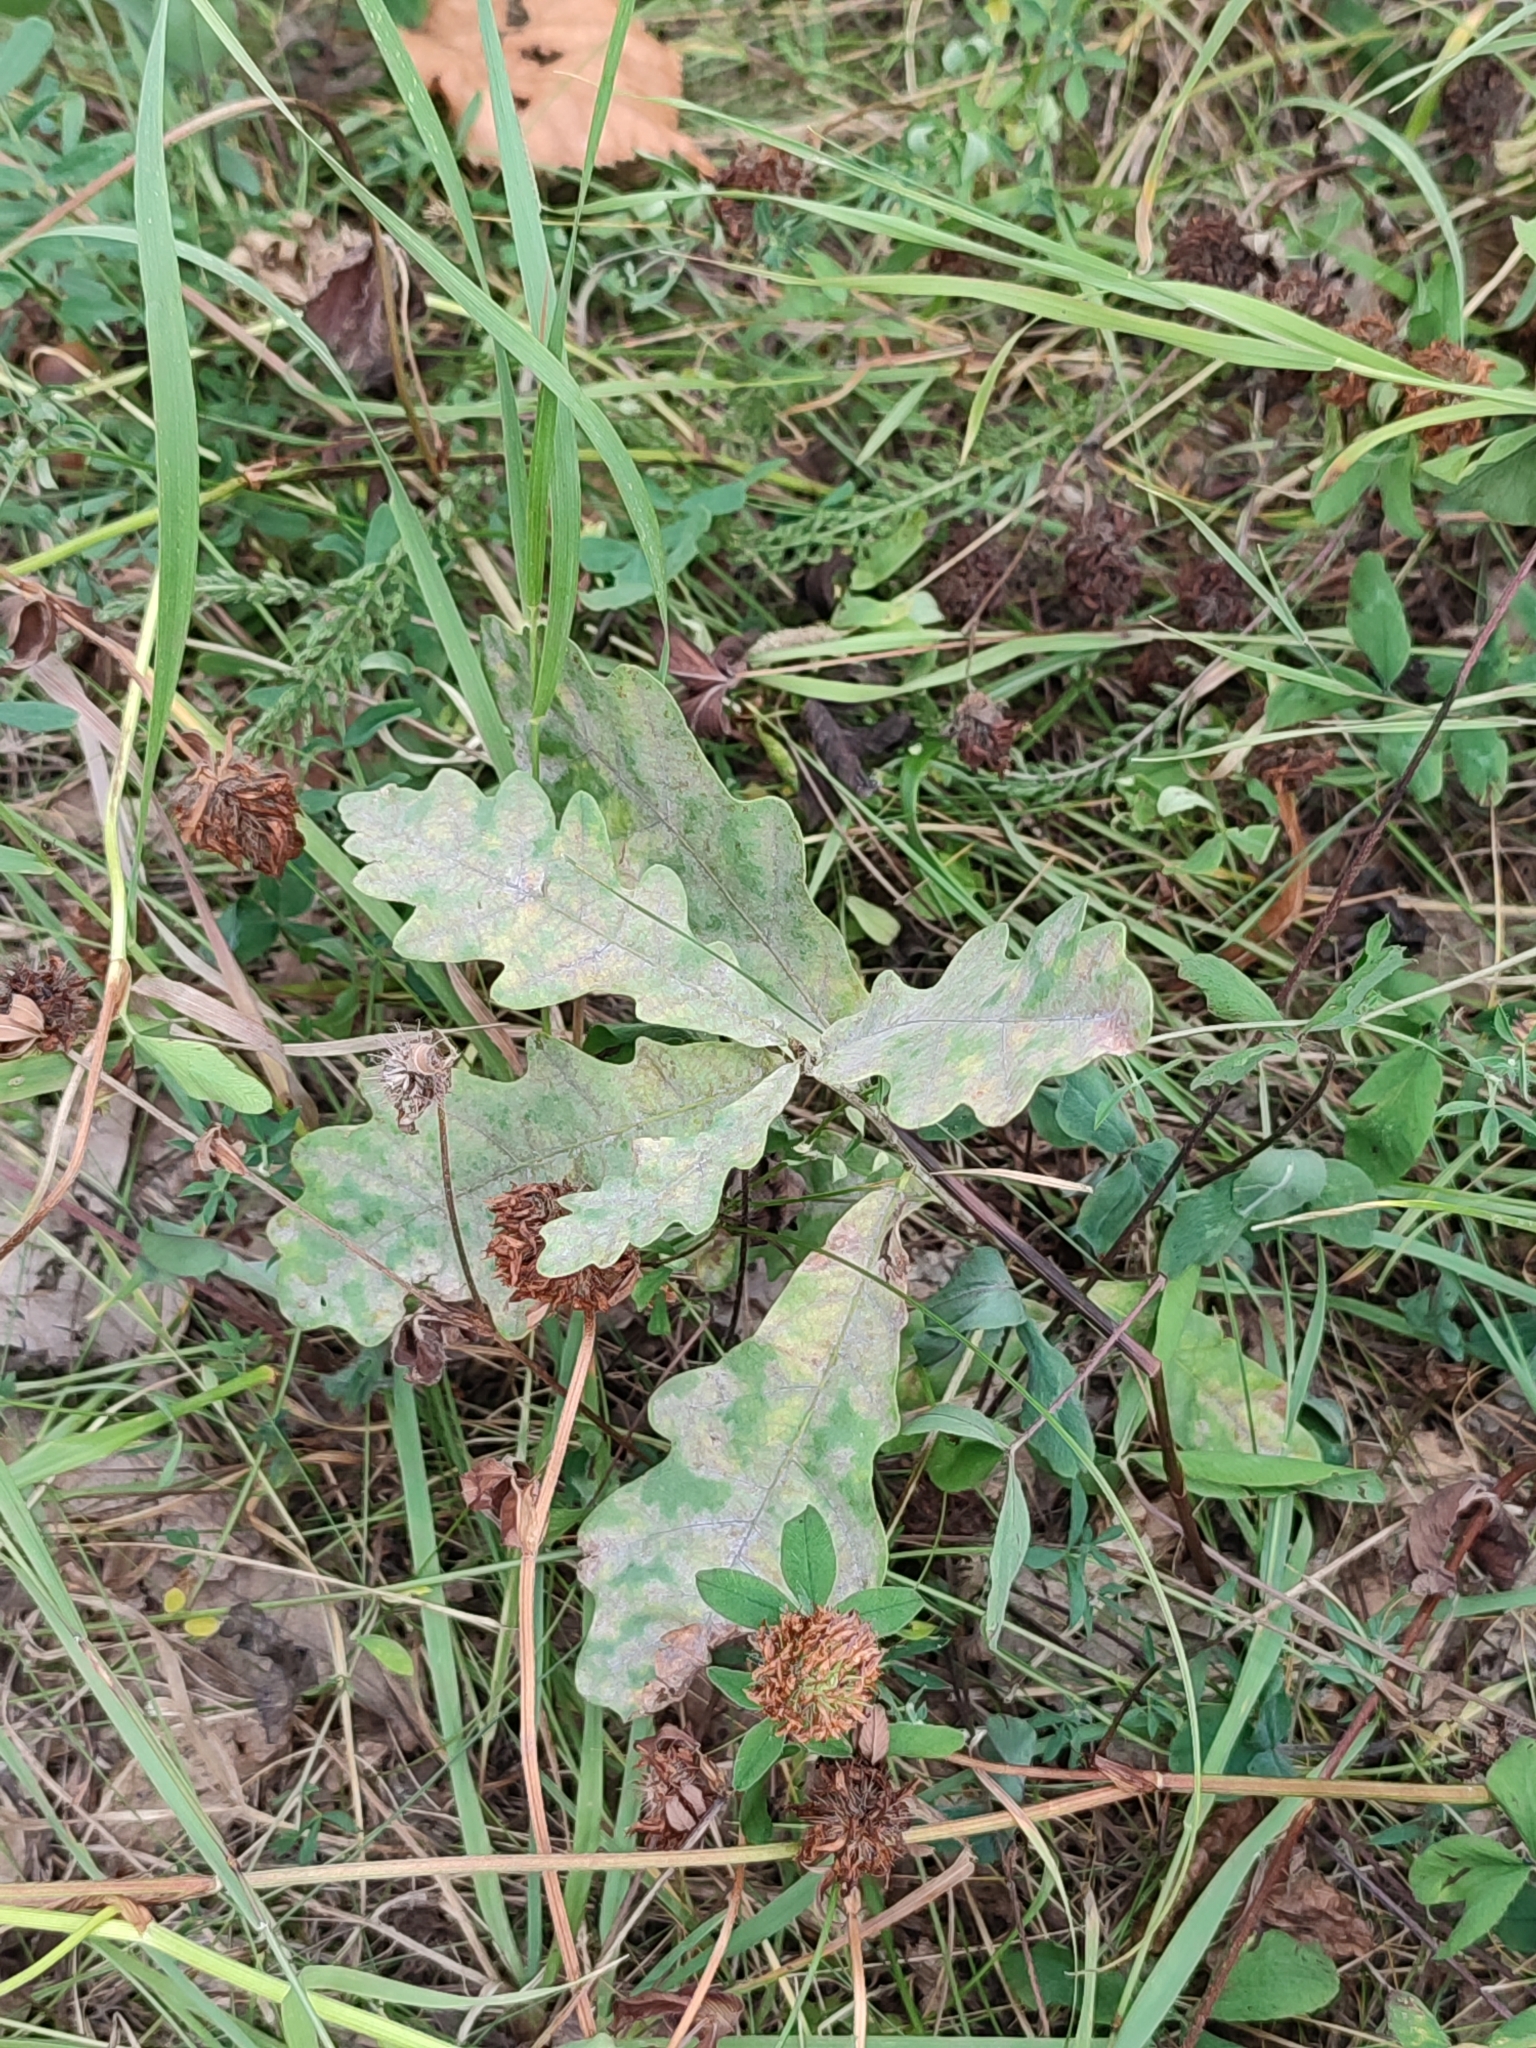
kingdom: Fungi
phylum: Ascomycota
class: Leotiomycetes
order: Helotiales
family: Erysiphaceae
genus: Erysiphe
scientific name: Erysiphe alphitoides
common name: Oak mildew
